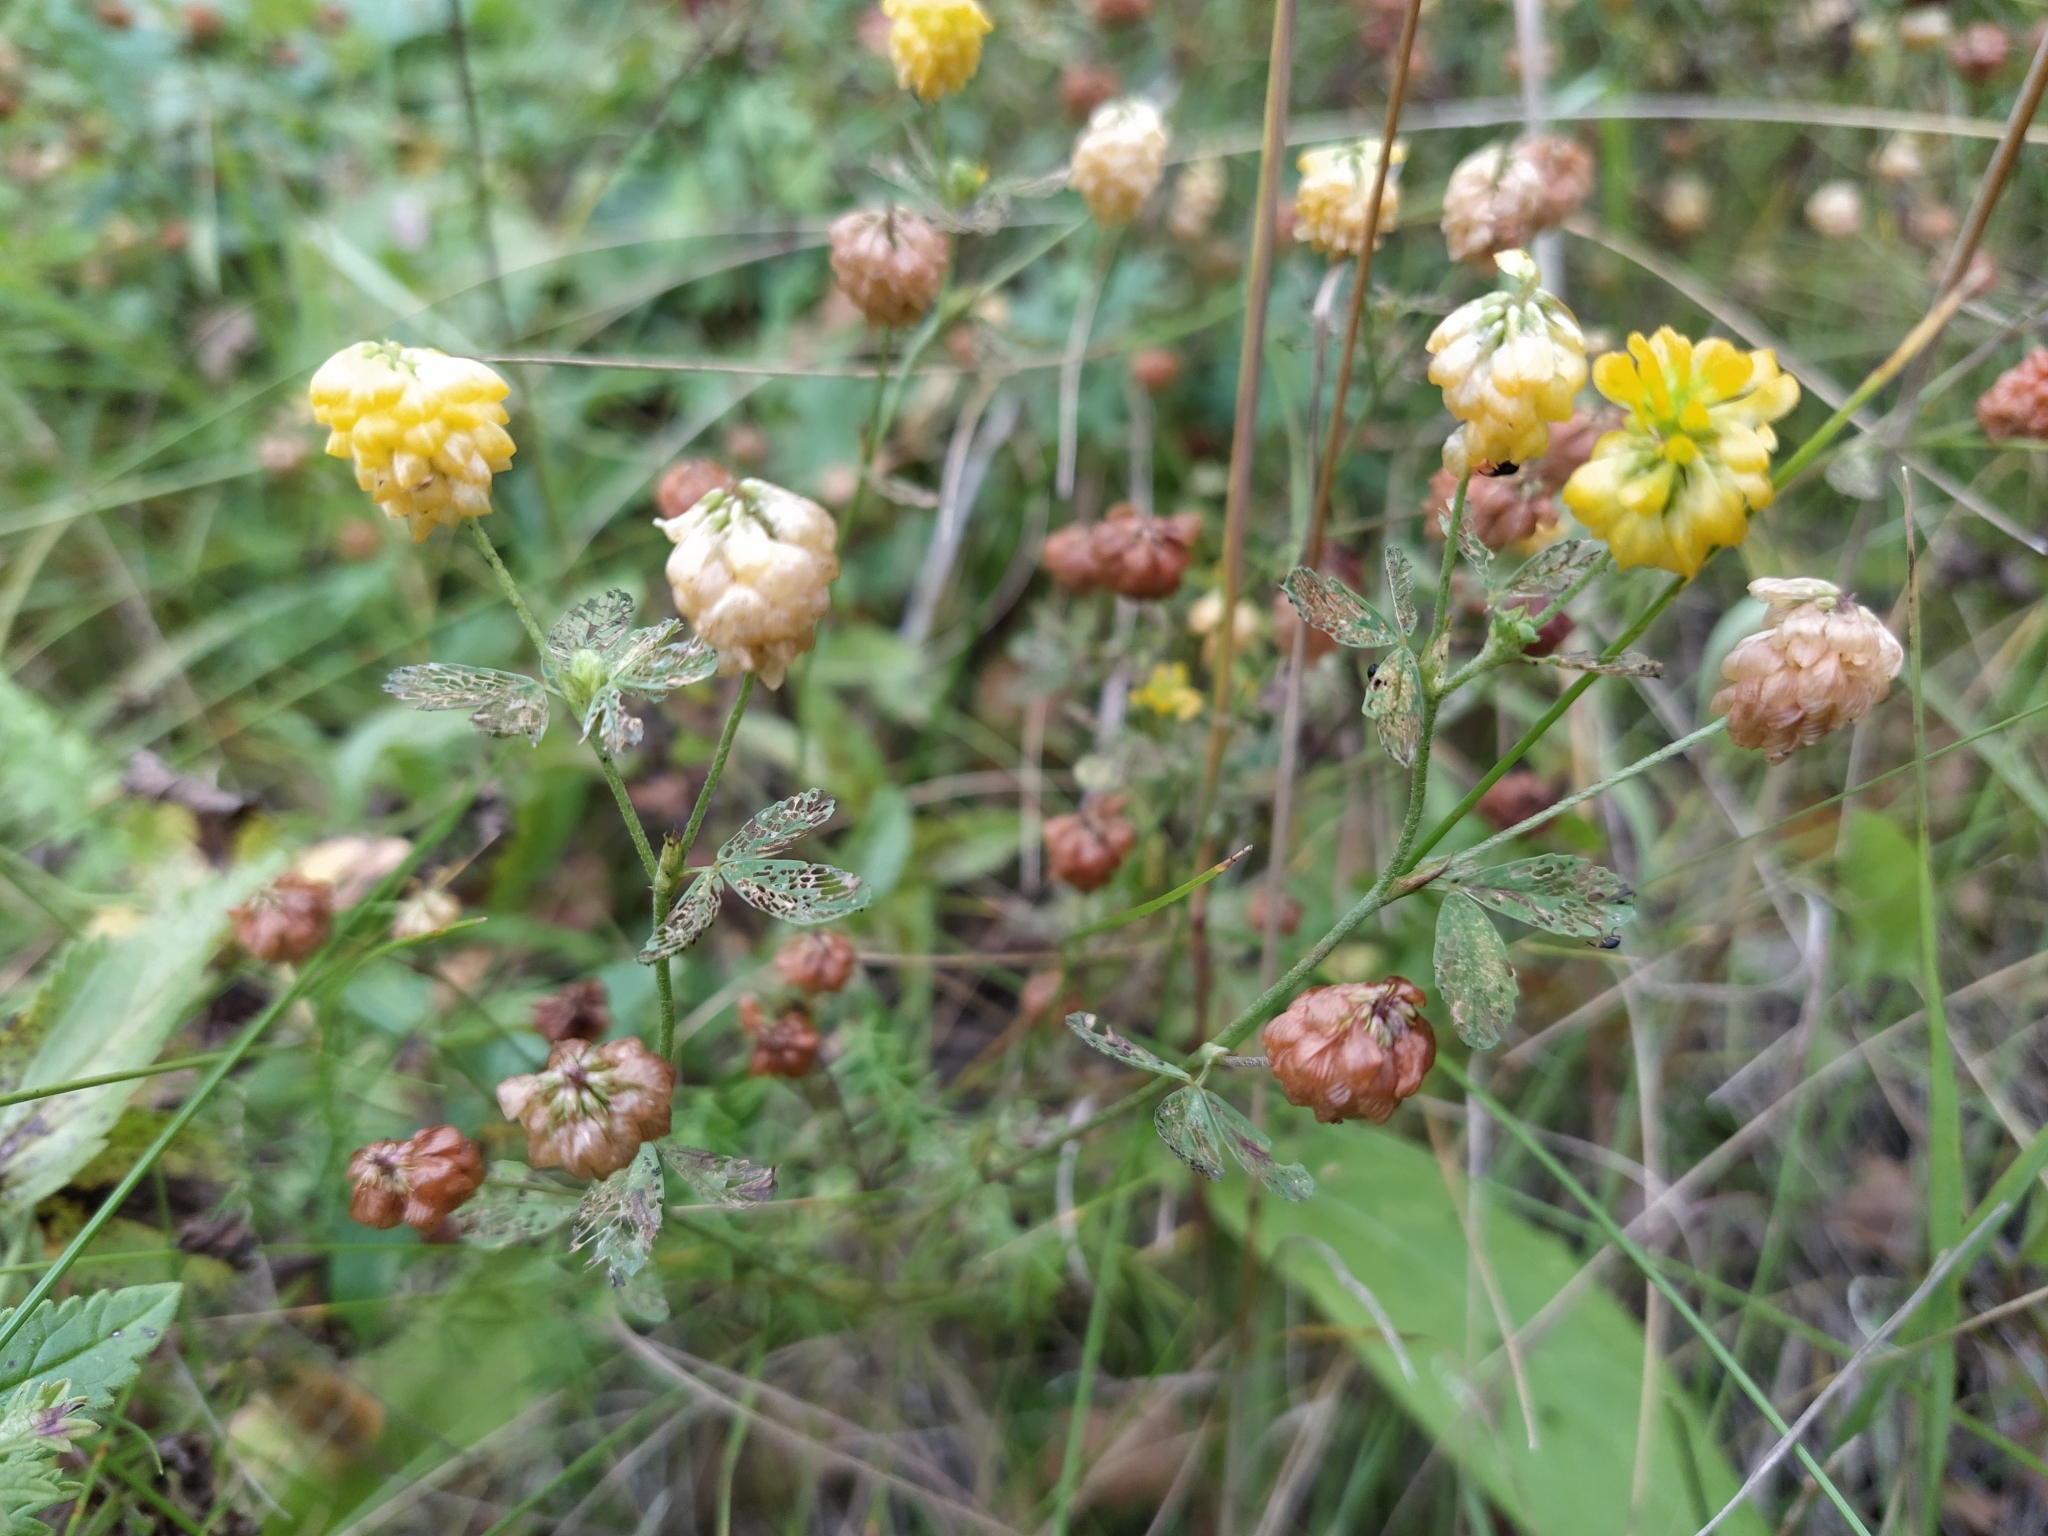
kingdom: Plantae
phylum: Tracheophyta
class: Magnoliopsida
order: Fabales
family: Fabaceae
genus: Trifolium
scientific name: Trifolium aureum
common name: Golden clover
